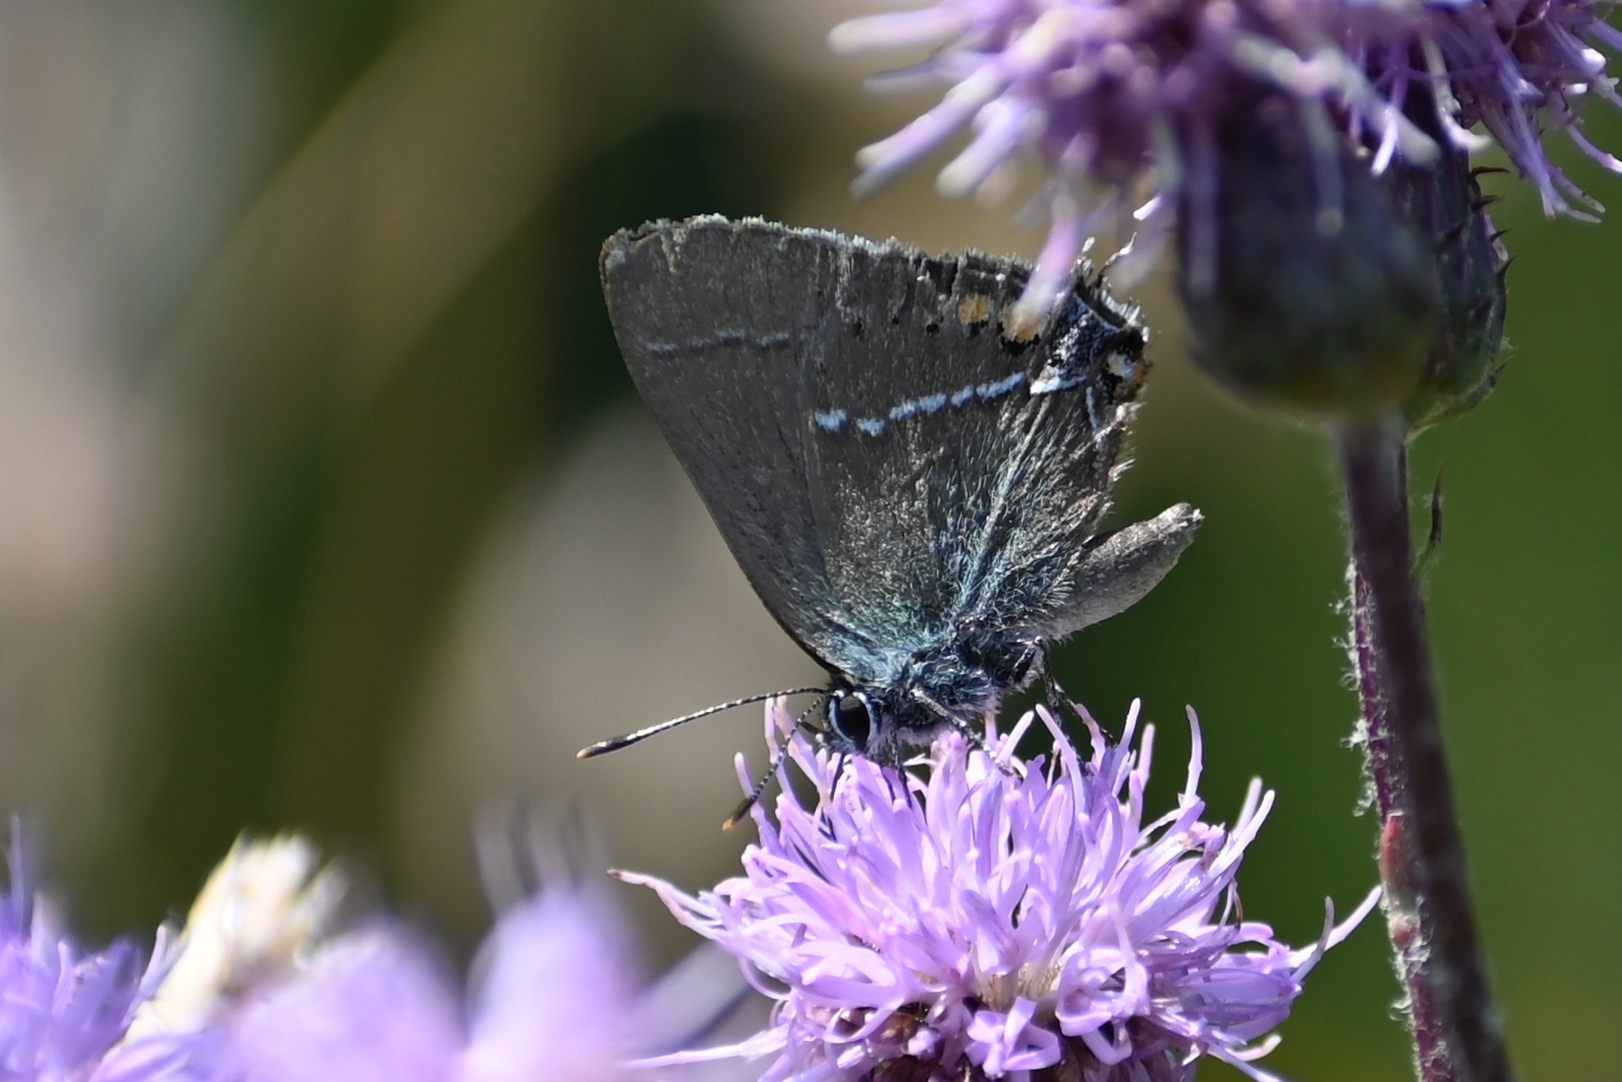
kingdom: Animalia
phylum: Arthropoda
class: Insecta
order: Lepidoptera
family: Lycaenidae
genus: Tuttiola
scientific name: Tuttiola spini
